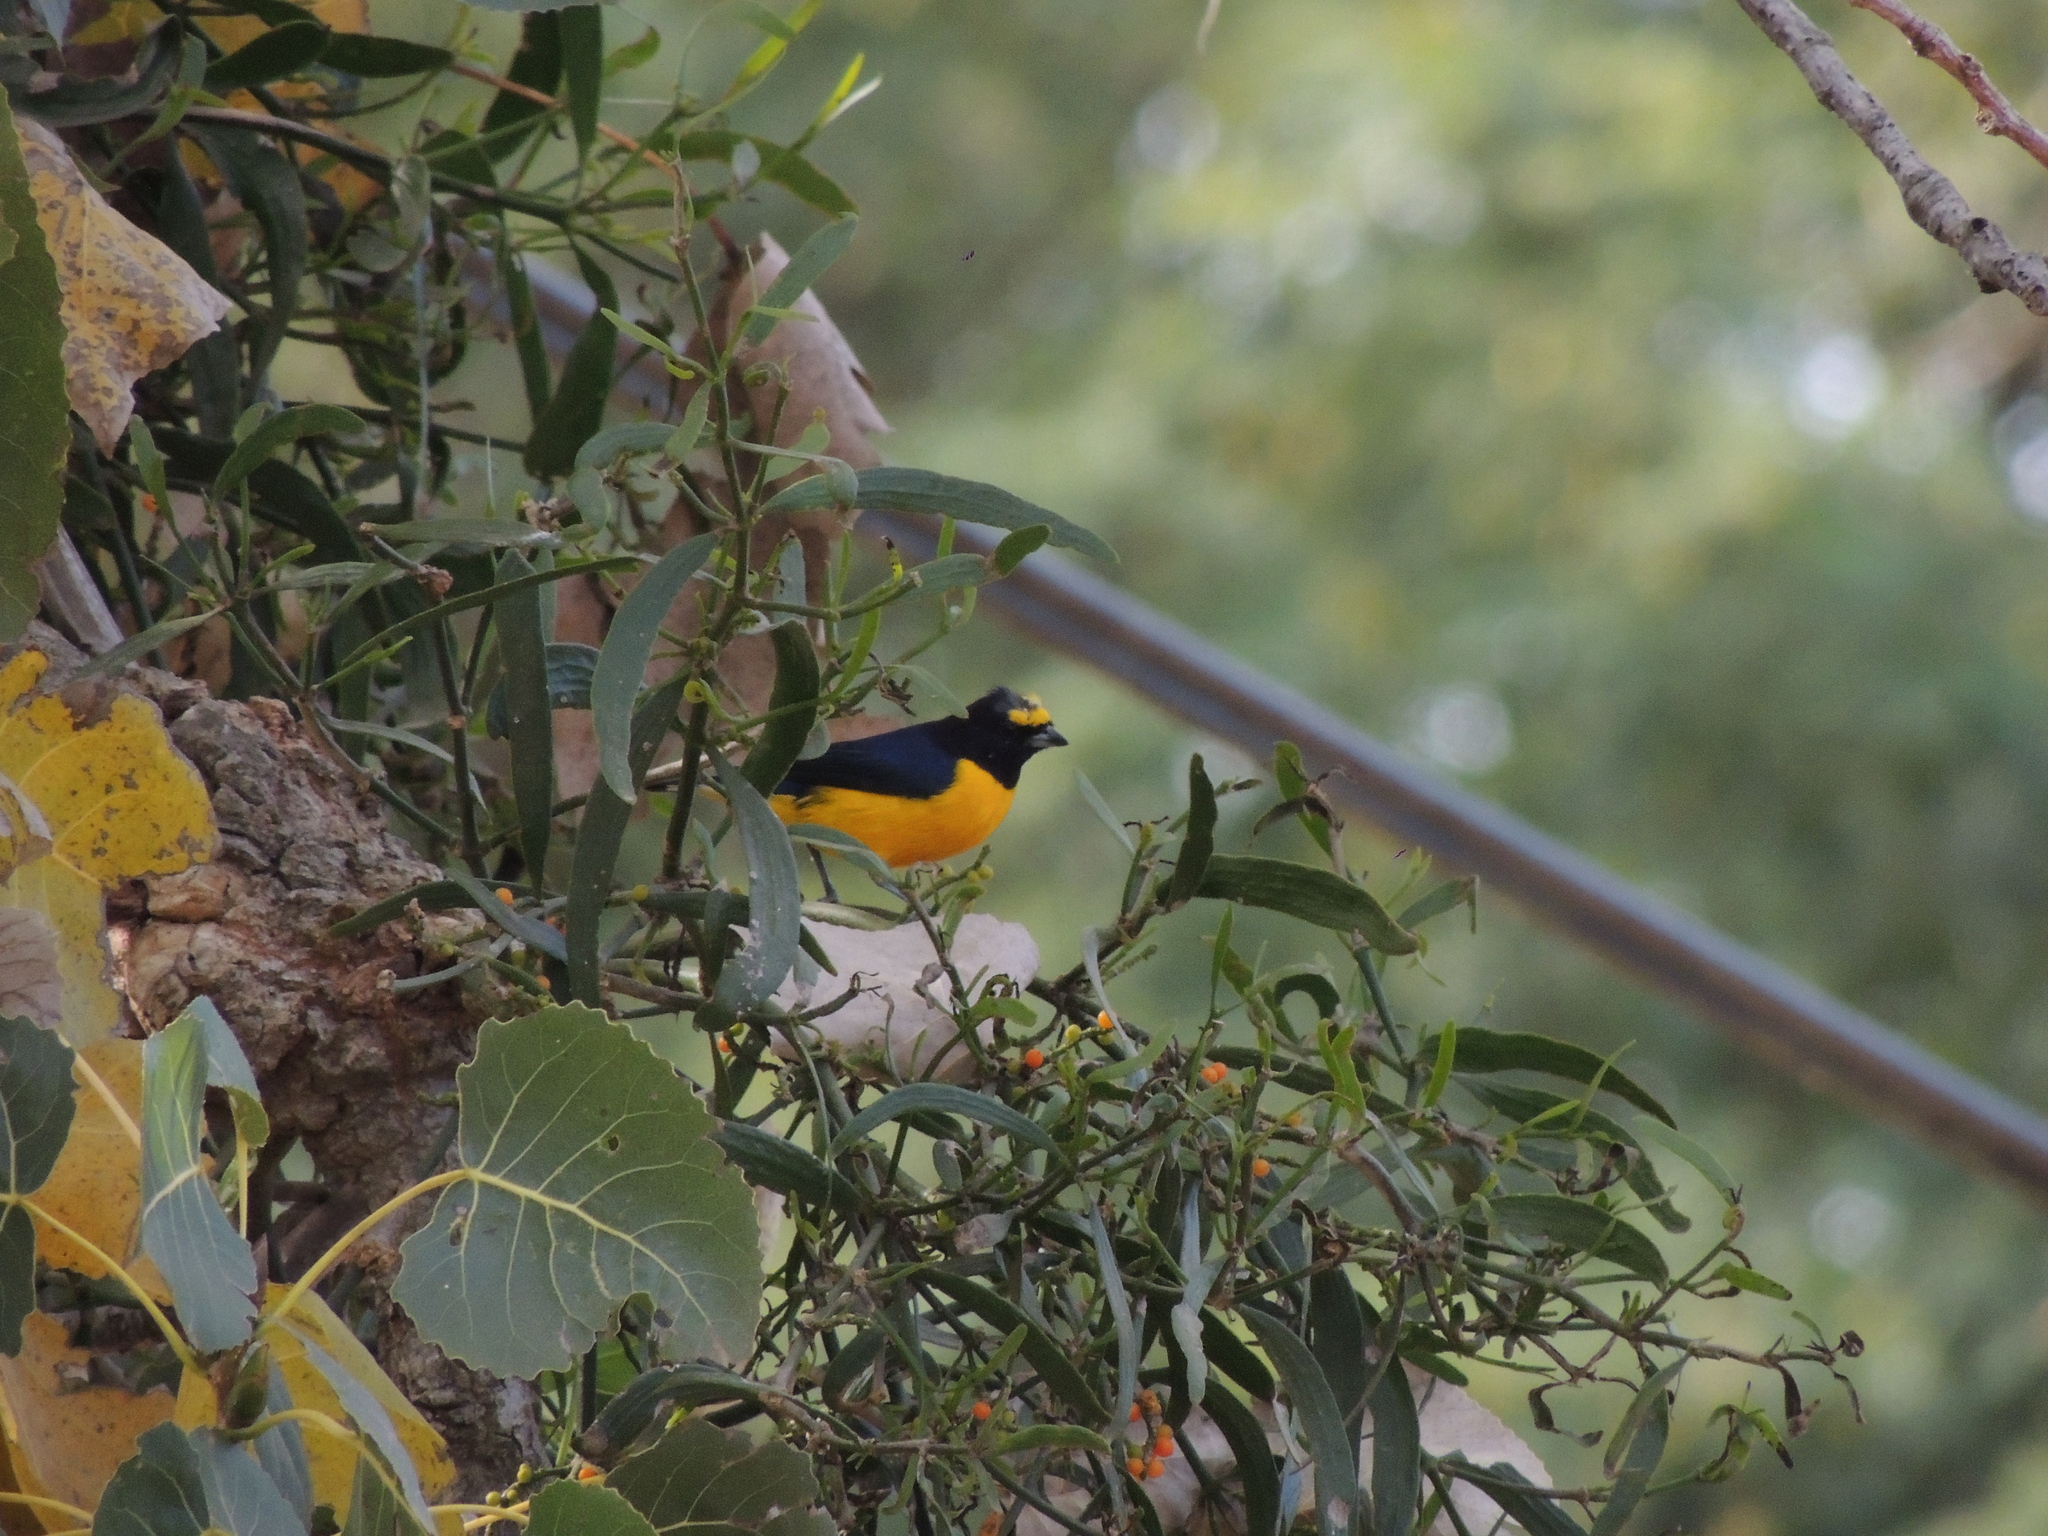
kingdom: Animalia
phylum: Chordata
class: Aves
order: Passeriformes
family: Fringillidae
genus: Euphonia
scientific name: Euphonia chlorotica
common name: Purple-throated euphonia
